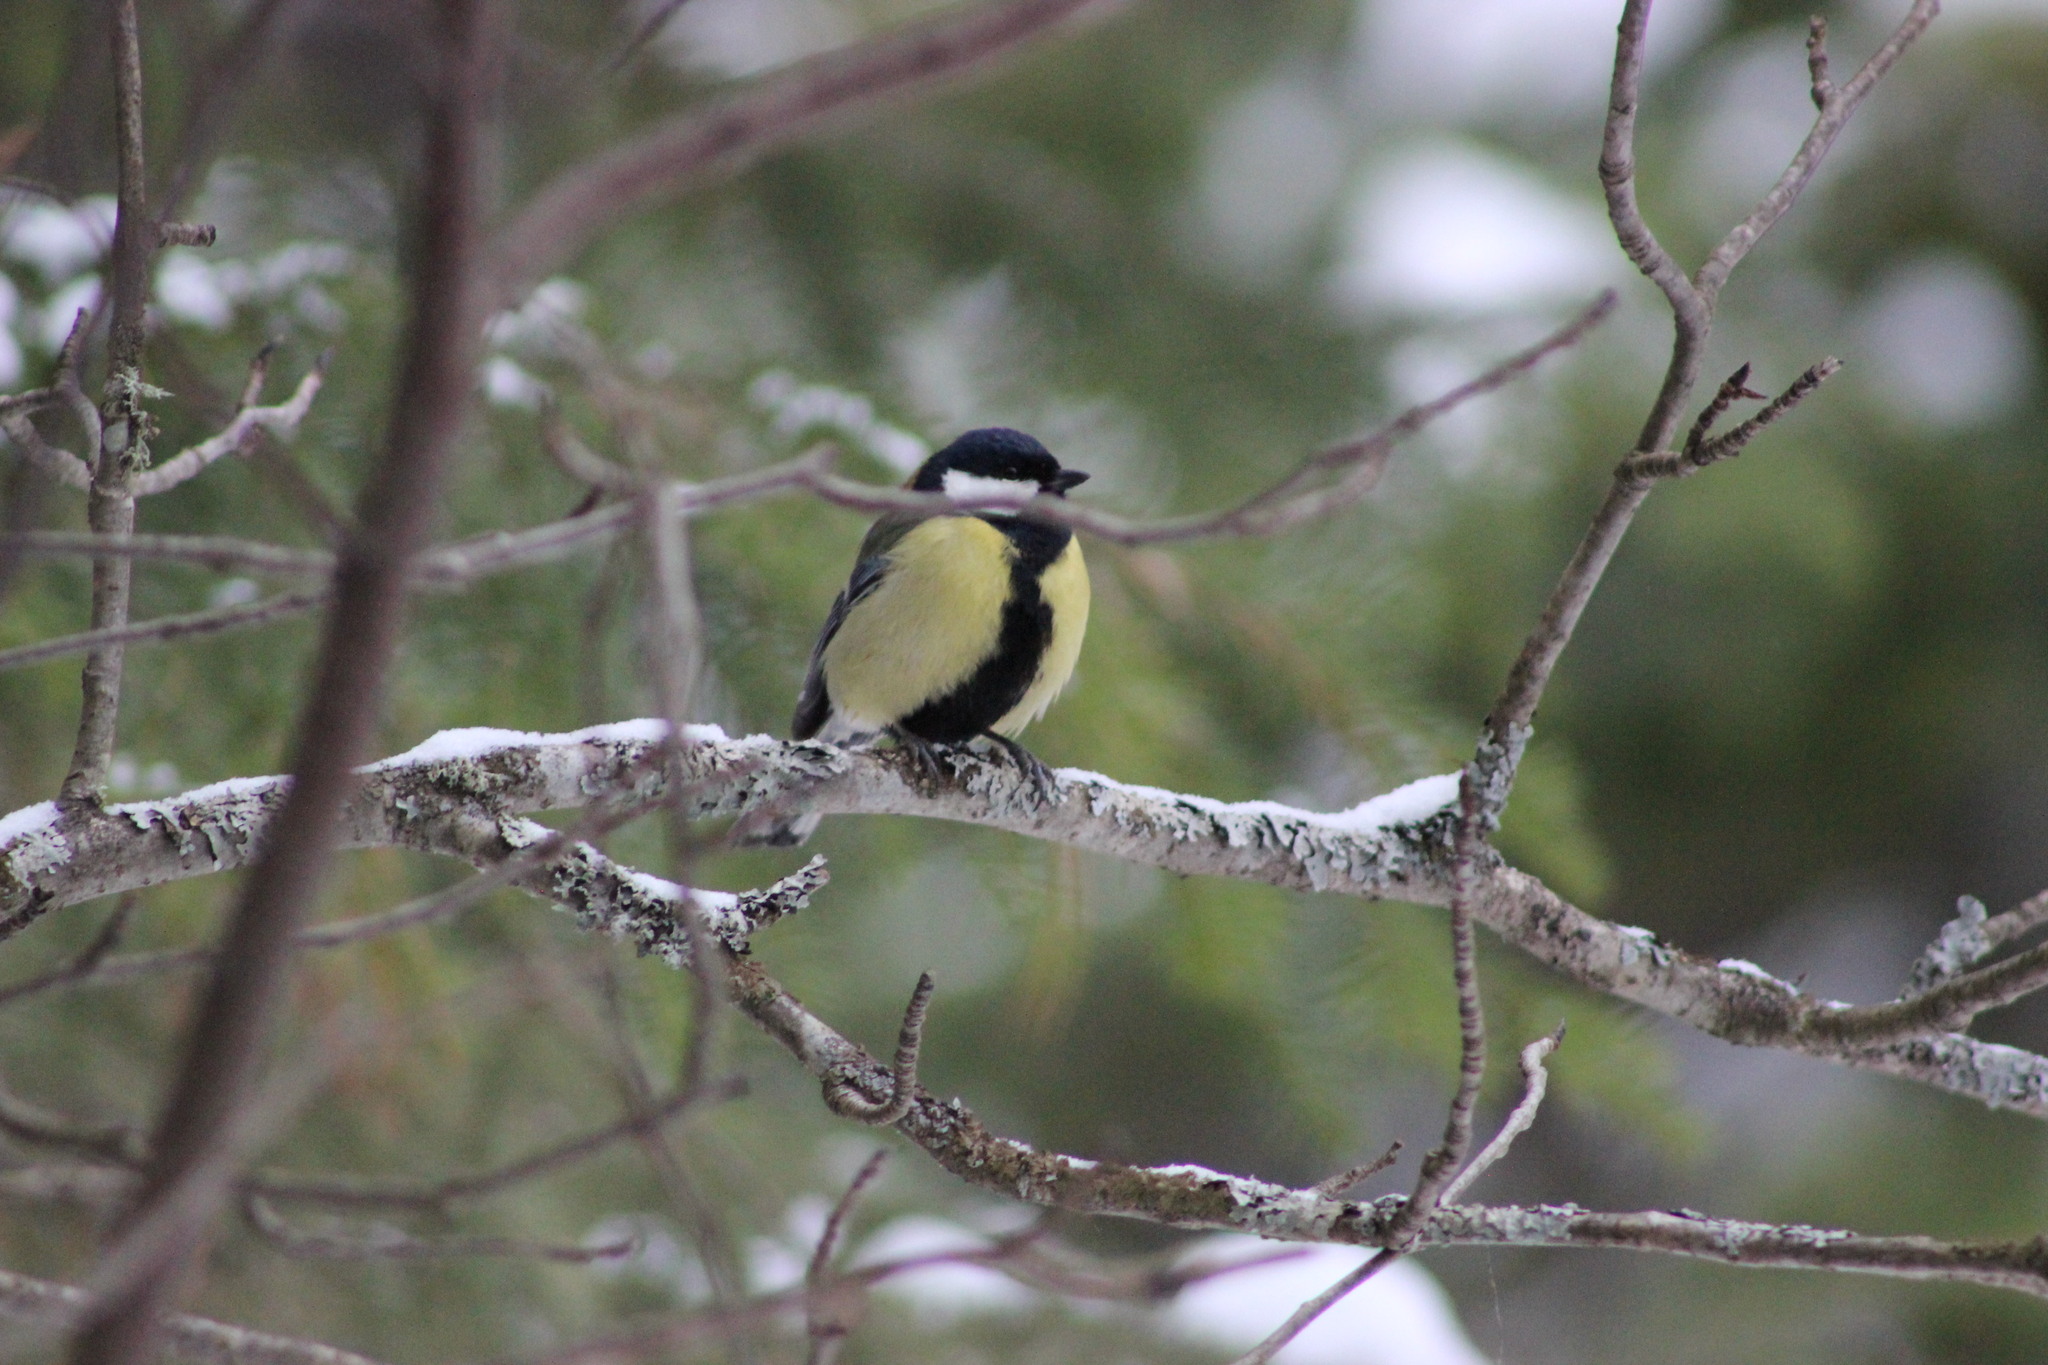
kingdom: Animalia
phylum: Chordata
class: Aves
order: Passeriformes
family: Paridae
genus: Parus
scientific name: Parus major
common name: Great tit
